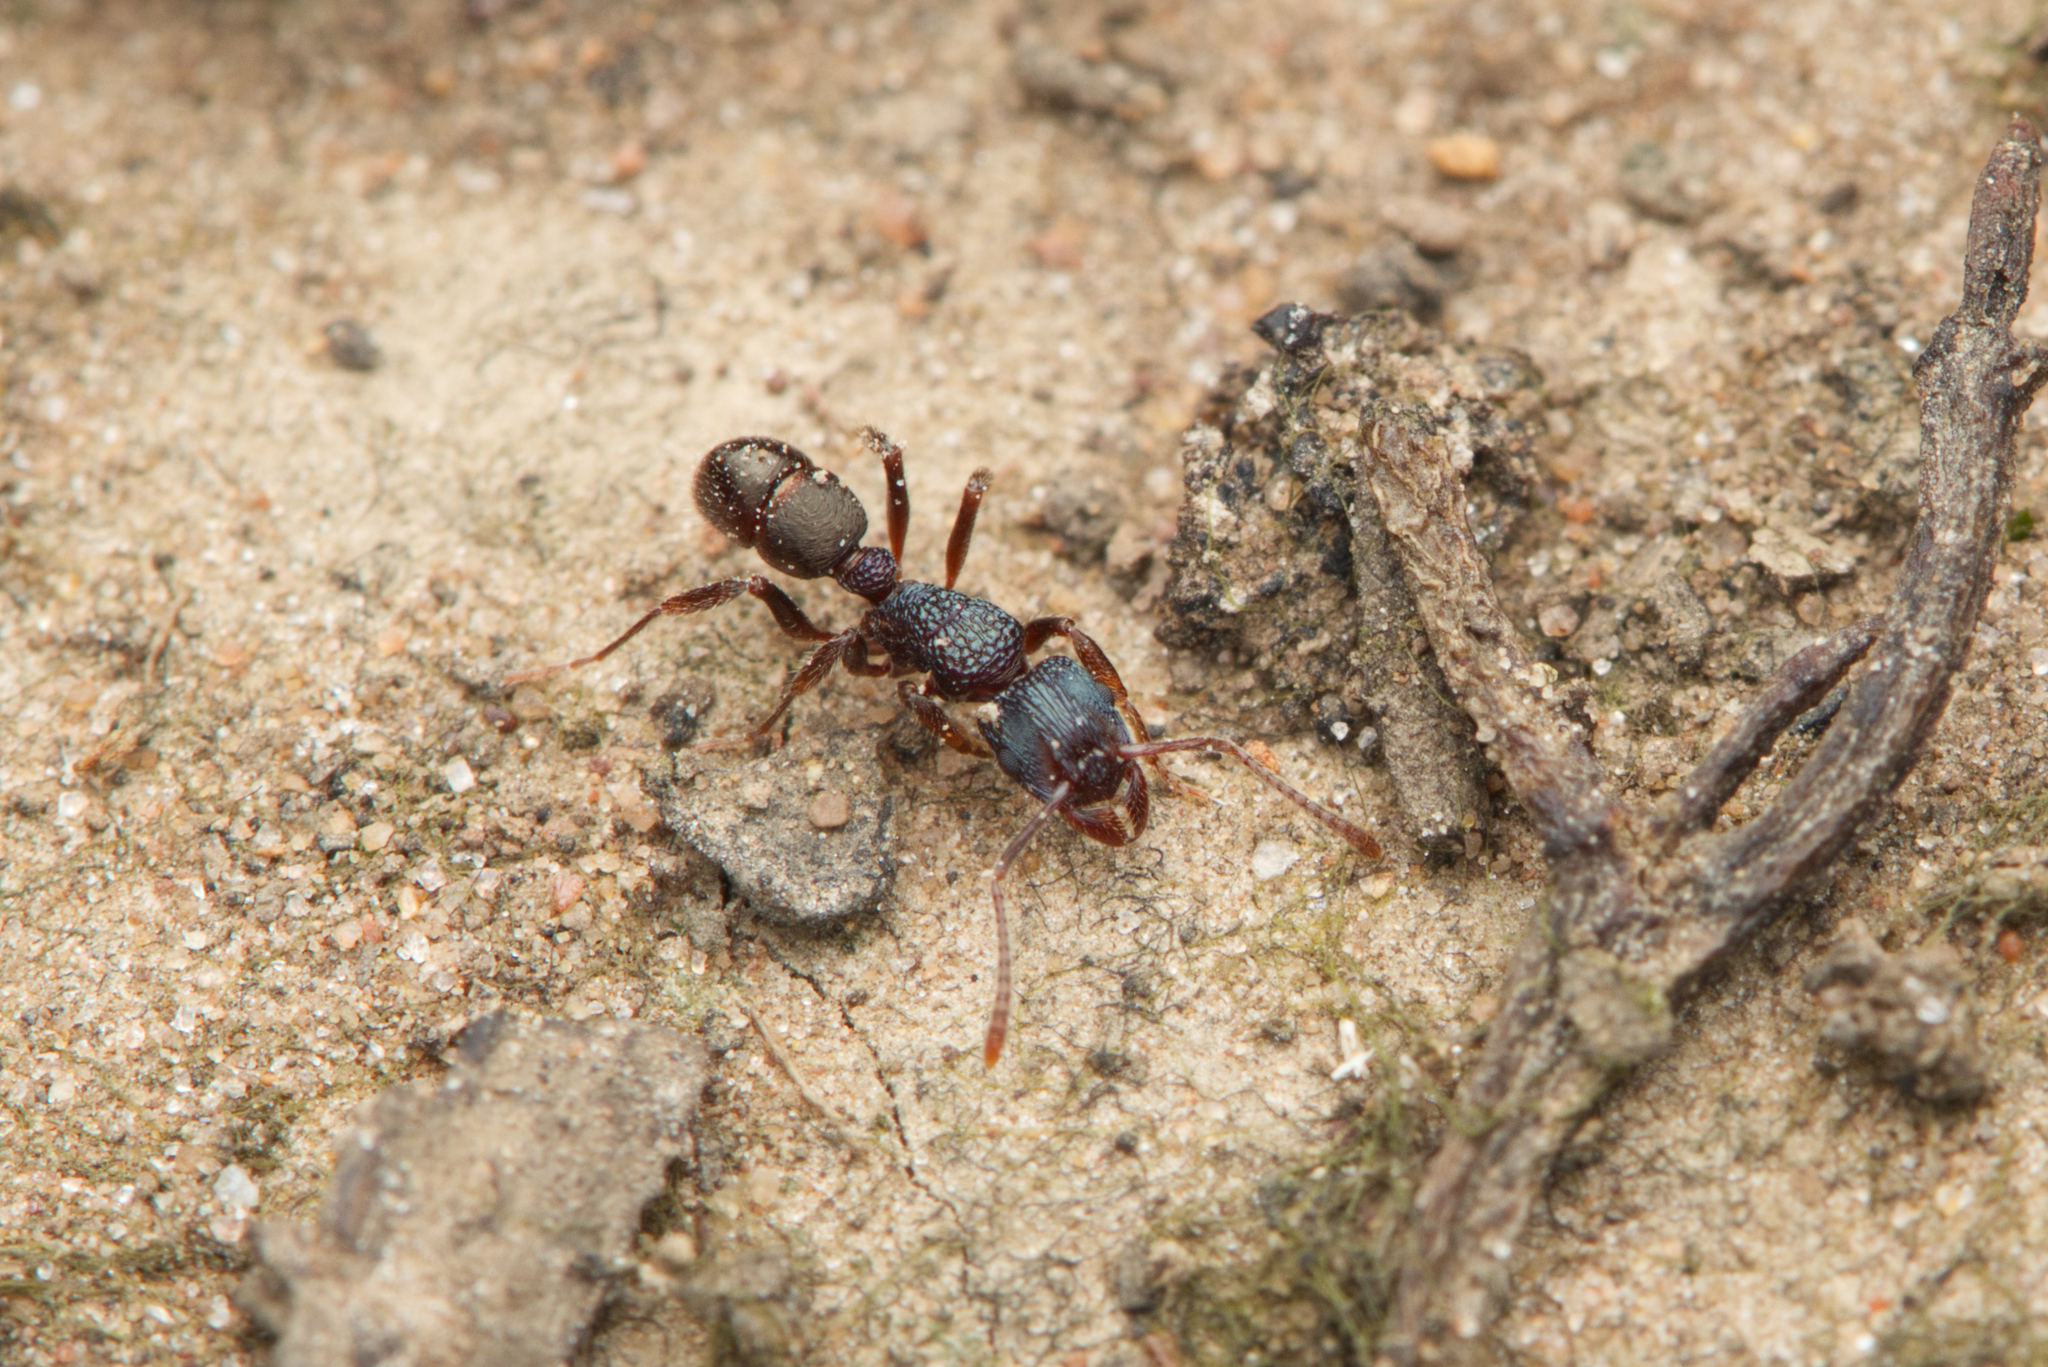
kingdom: Animalia
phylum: Arthropoda
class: Insecta
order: Hymenoptera
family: Formicidae
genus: Rhytidoponera
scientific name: Rhytidoponera victoriae
